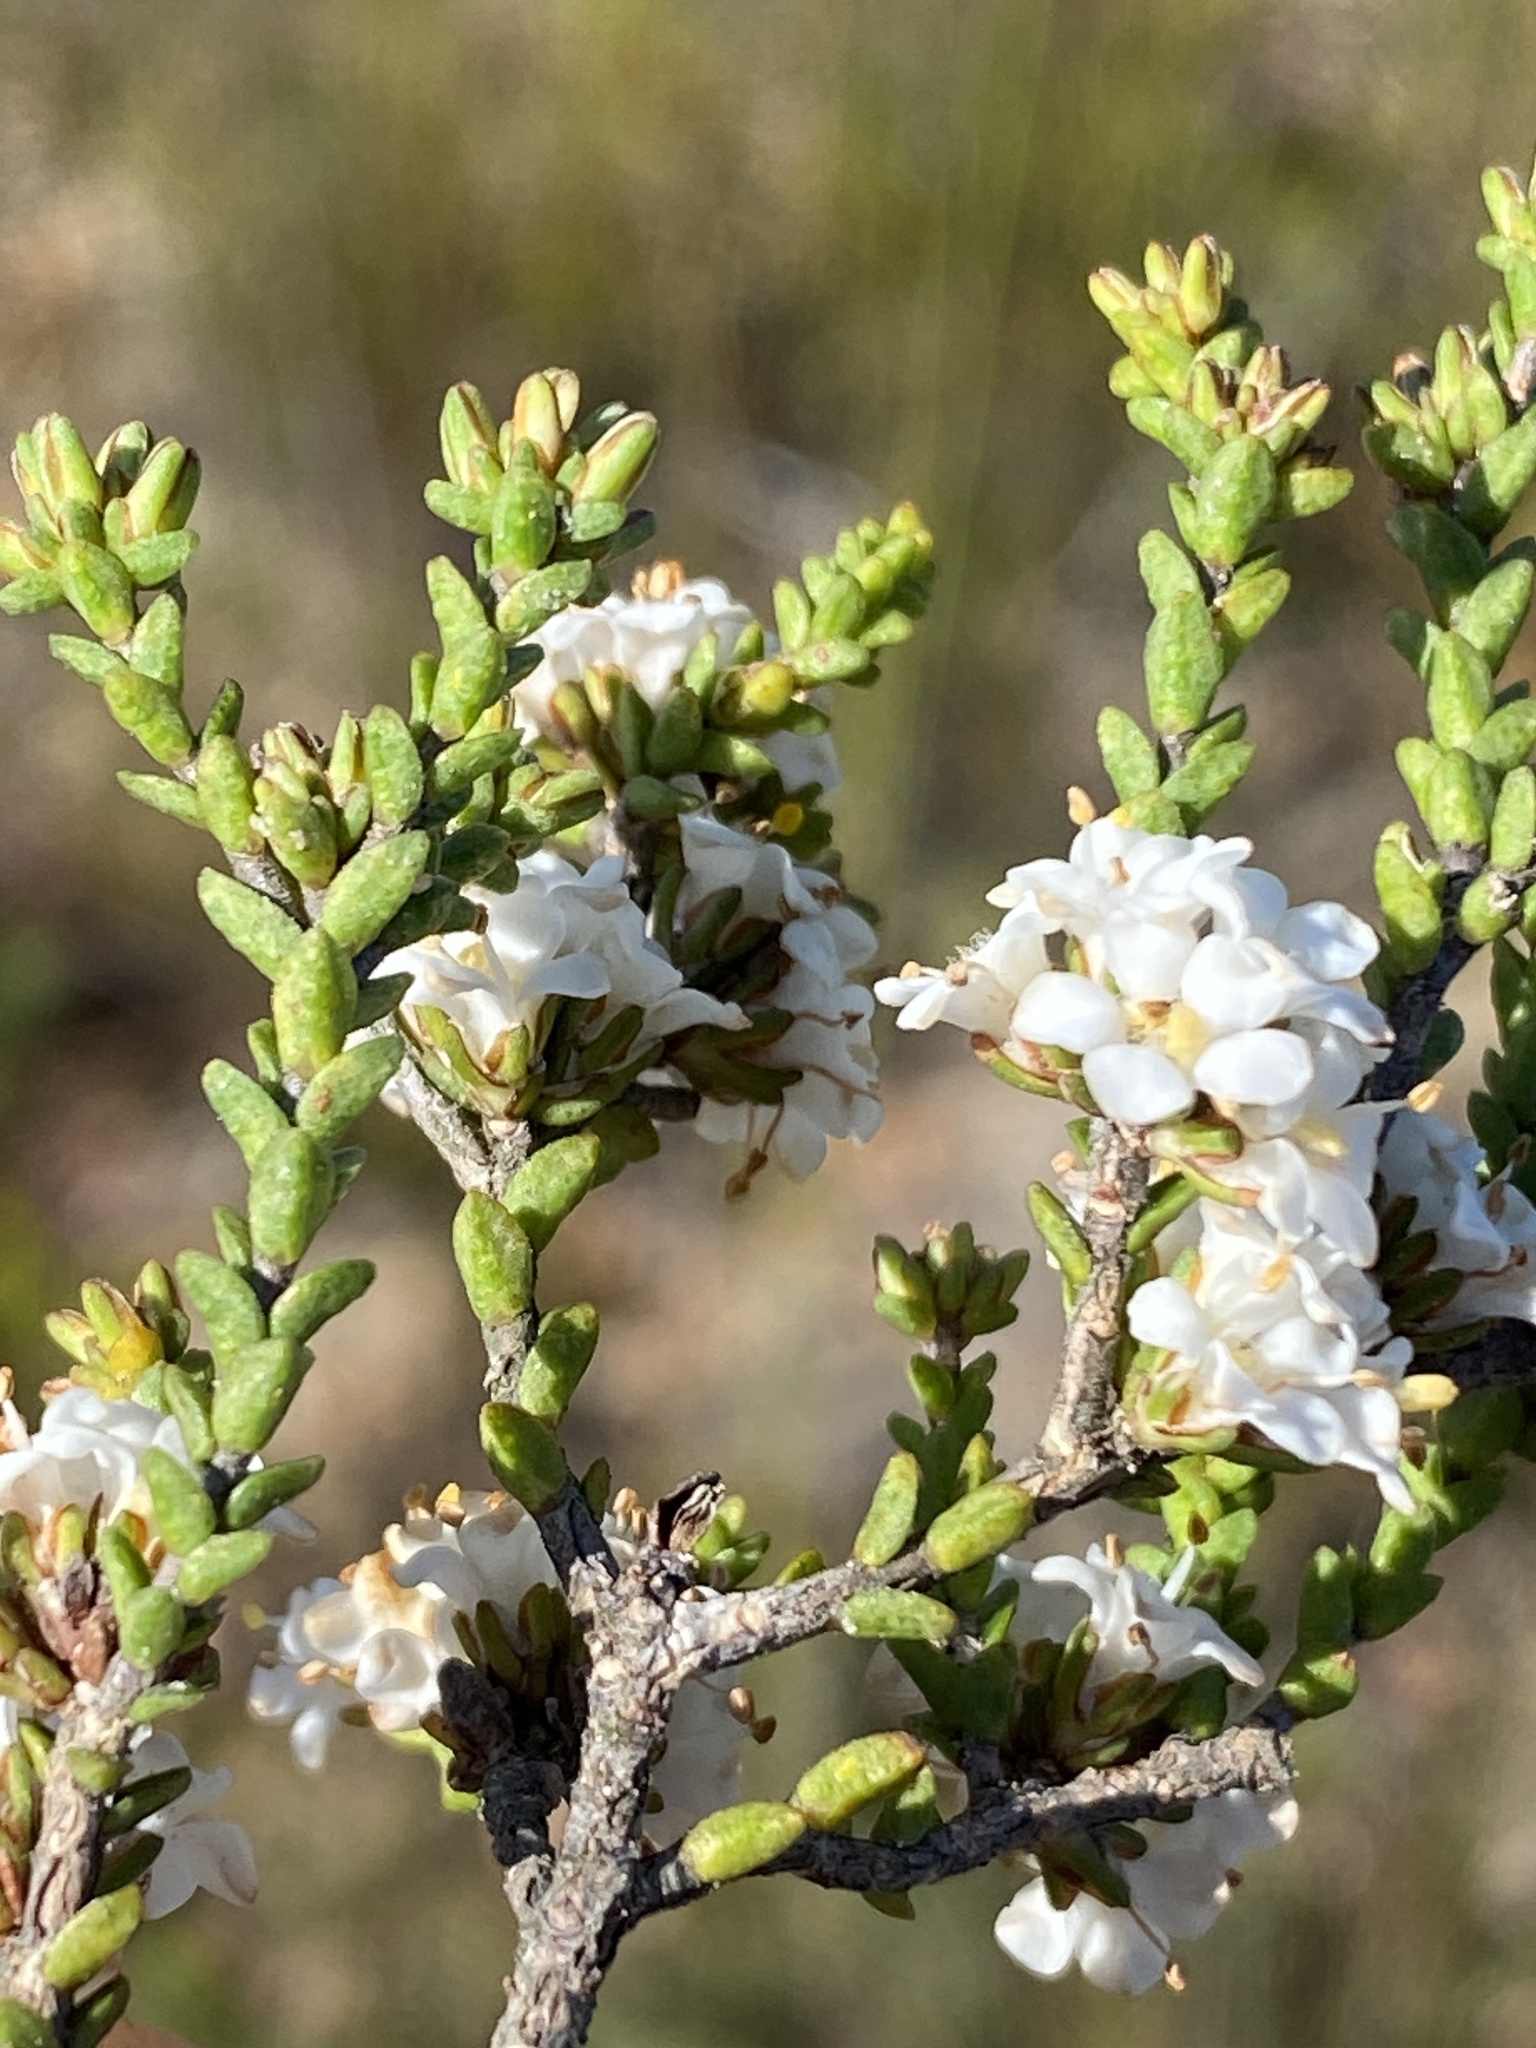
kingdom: Plantae
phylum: Tracheophyta
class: Magnoliopsida
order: Sapindales
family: Rutaceae
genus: Macrostylis
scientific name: Macrostylis cauliflora
